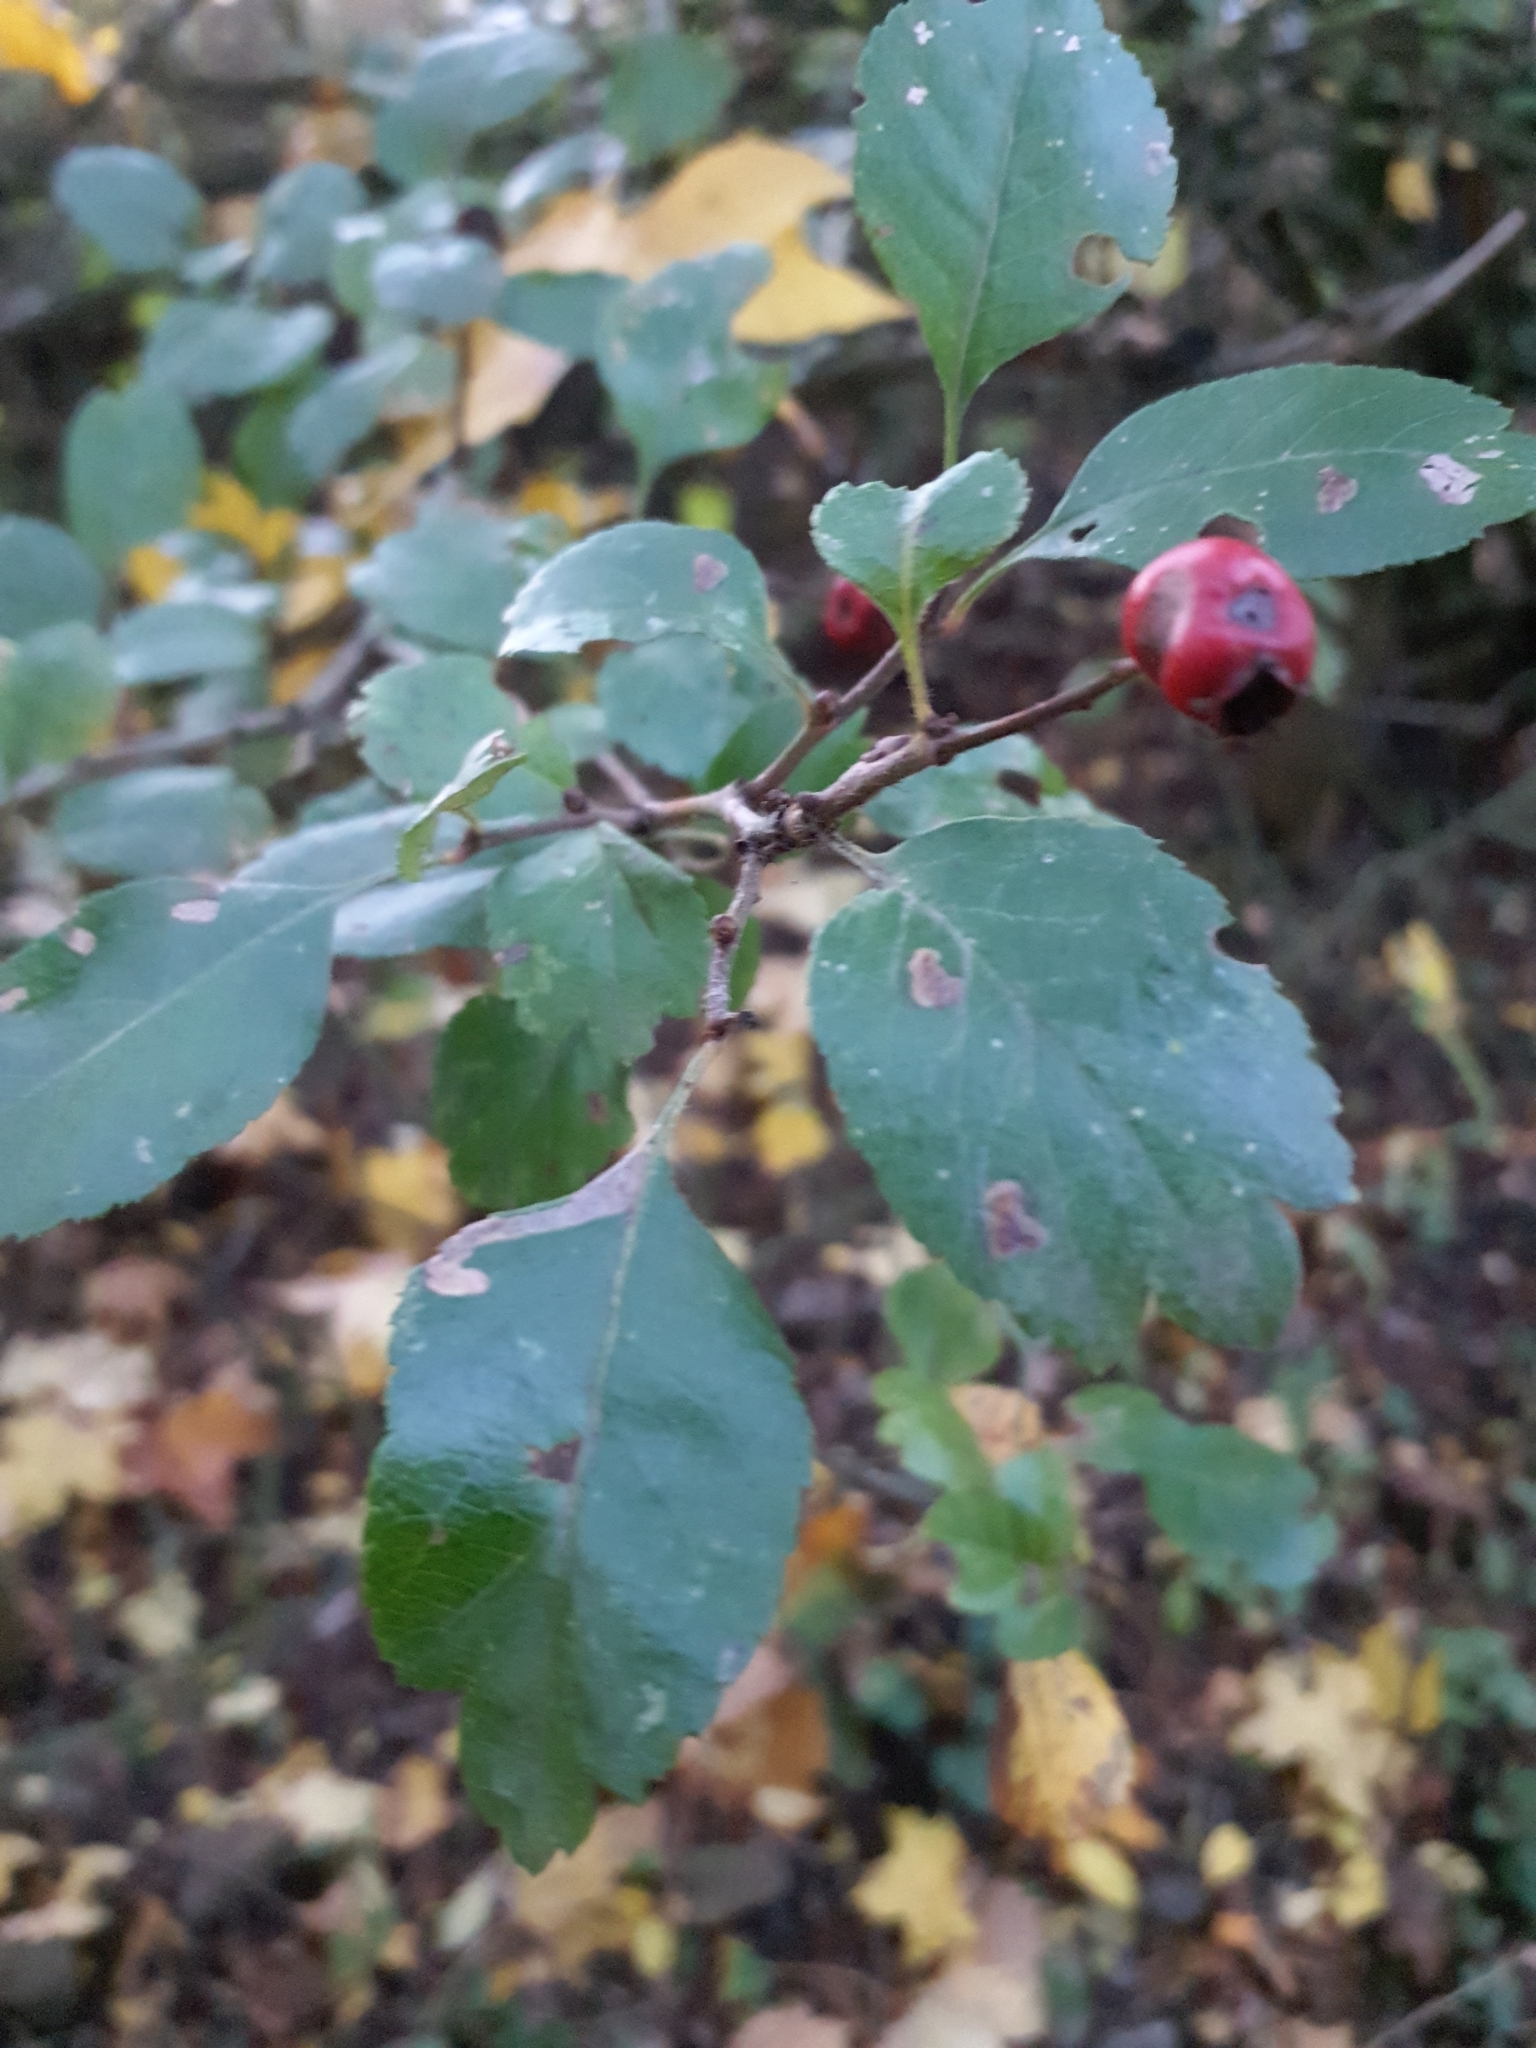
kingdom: Plantae
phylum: Tracheophyta
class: Magnoliopsida
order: Rosales
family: Rosaceae
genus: Crataegus
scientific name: Crataegus laevigata
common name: Midland hawthorn
